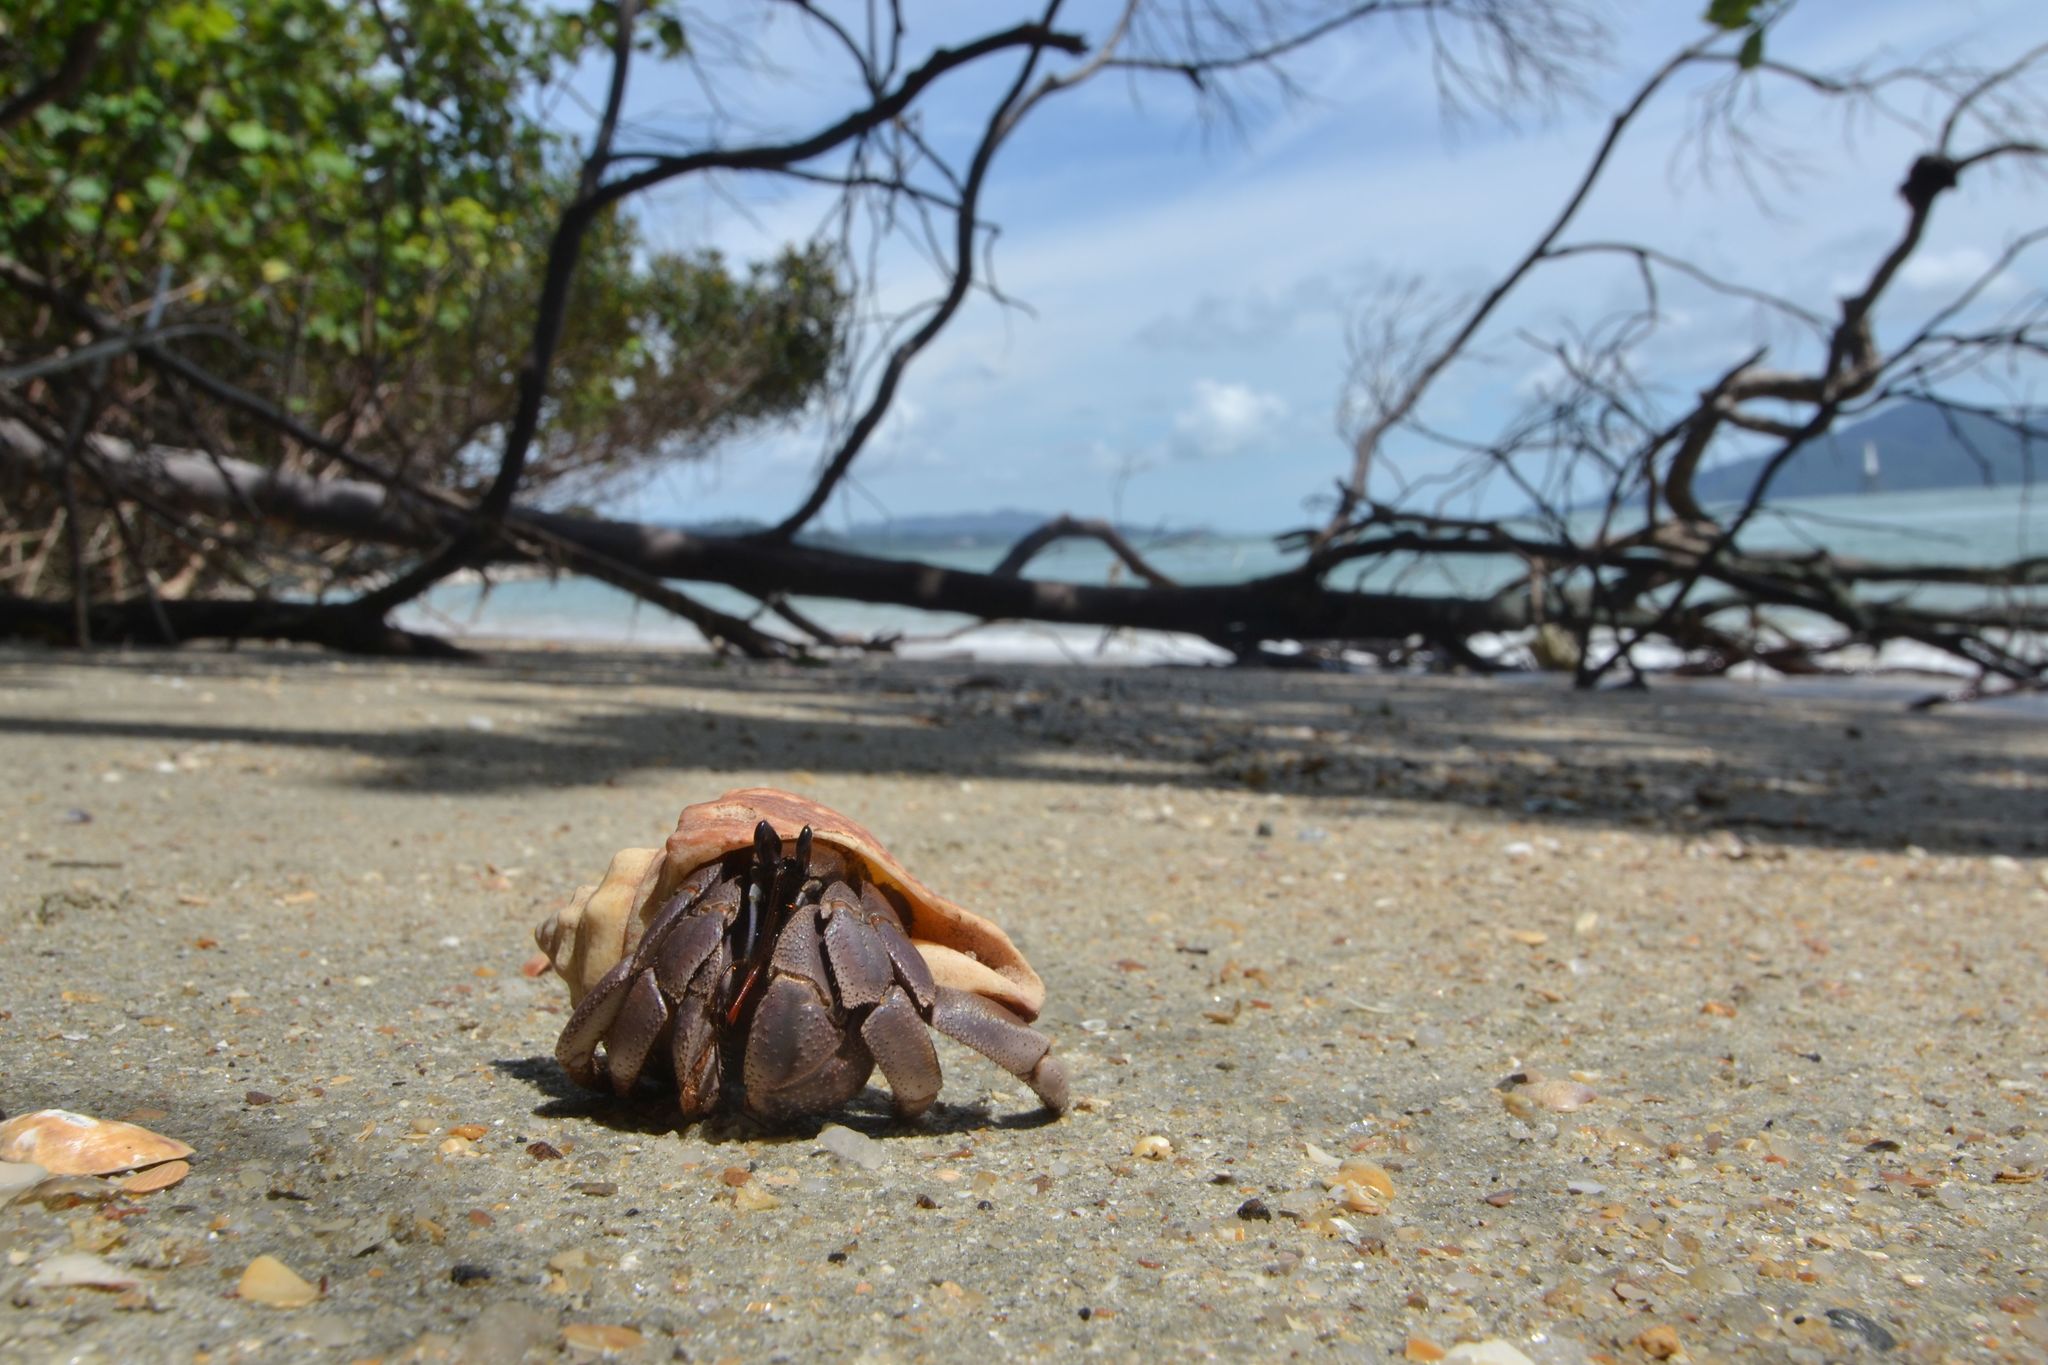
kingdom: Animalia
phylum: Arthropoda
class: Malacostraca
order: Decapoda
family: Coenobitidae
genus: Coenobita
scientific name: Coenobita violascens
